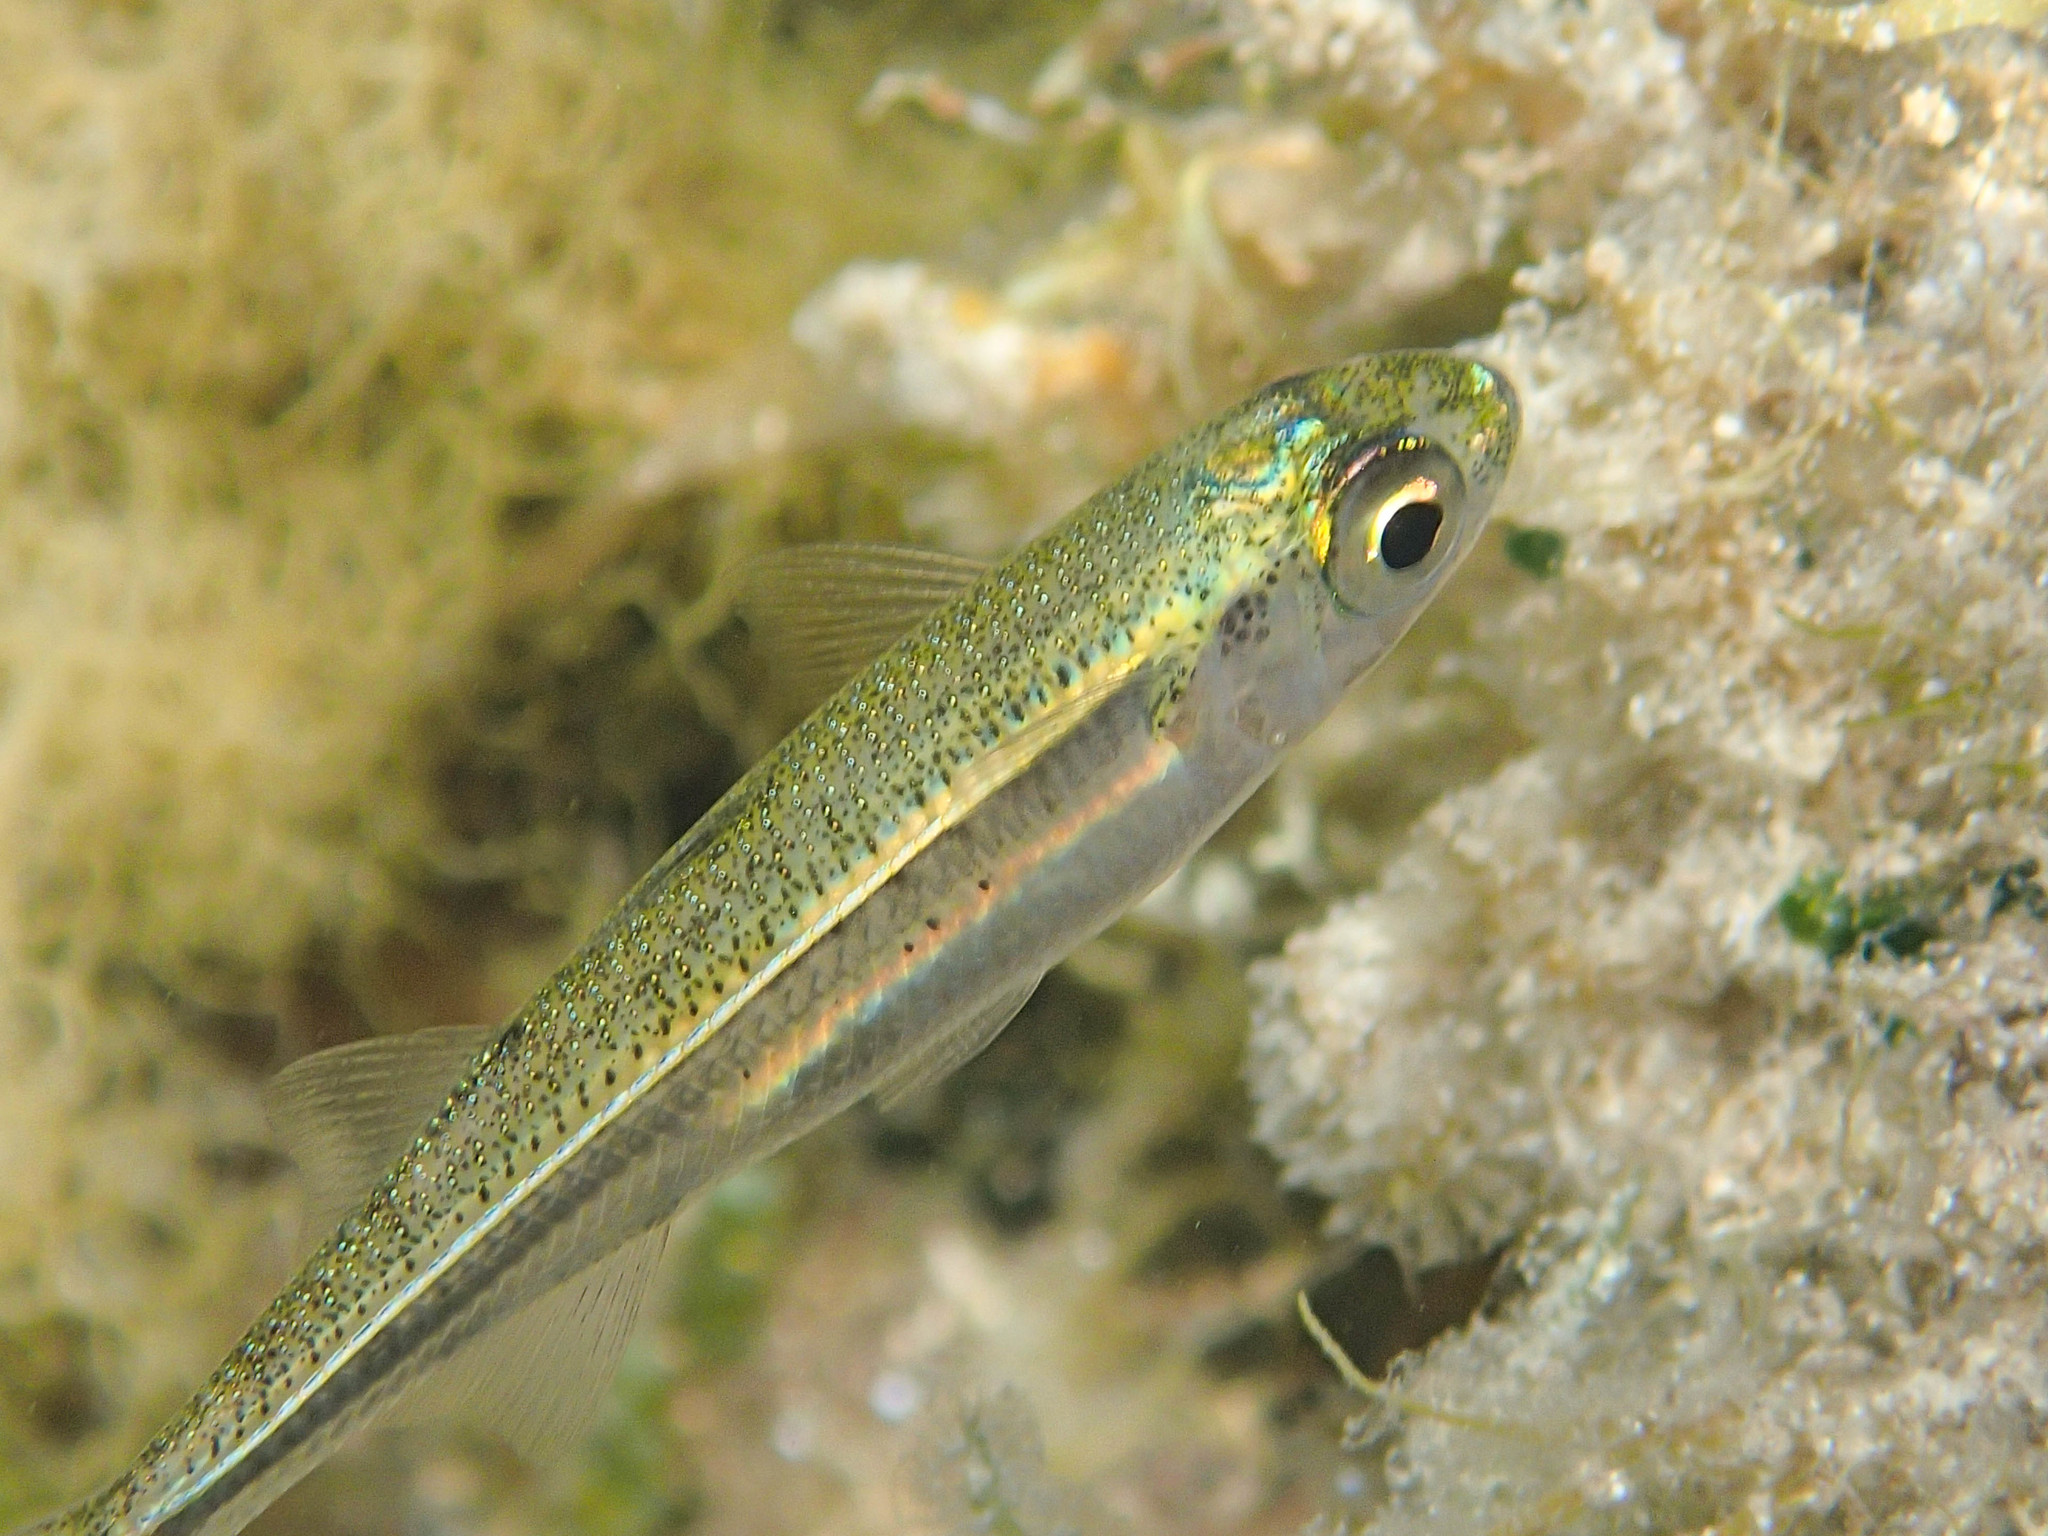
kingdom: Animalia
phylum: Chordata
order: Atheriniformes
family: Atherinidae
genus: Atherina
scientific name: Atherina boyeri
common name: Big-scale sand smelt
